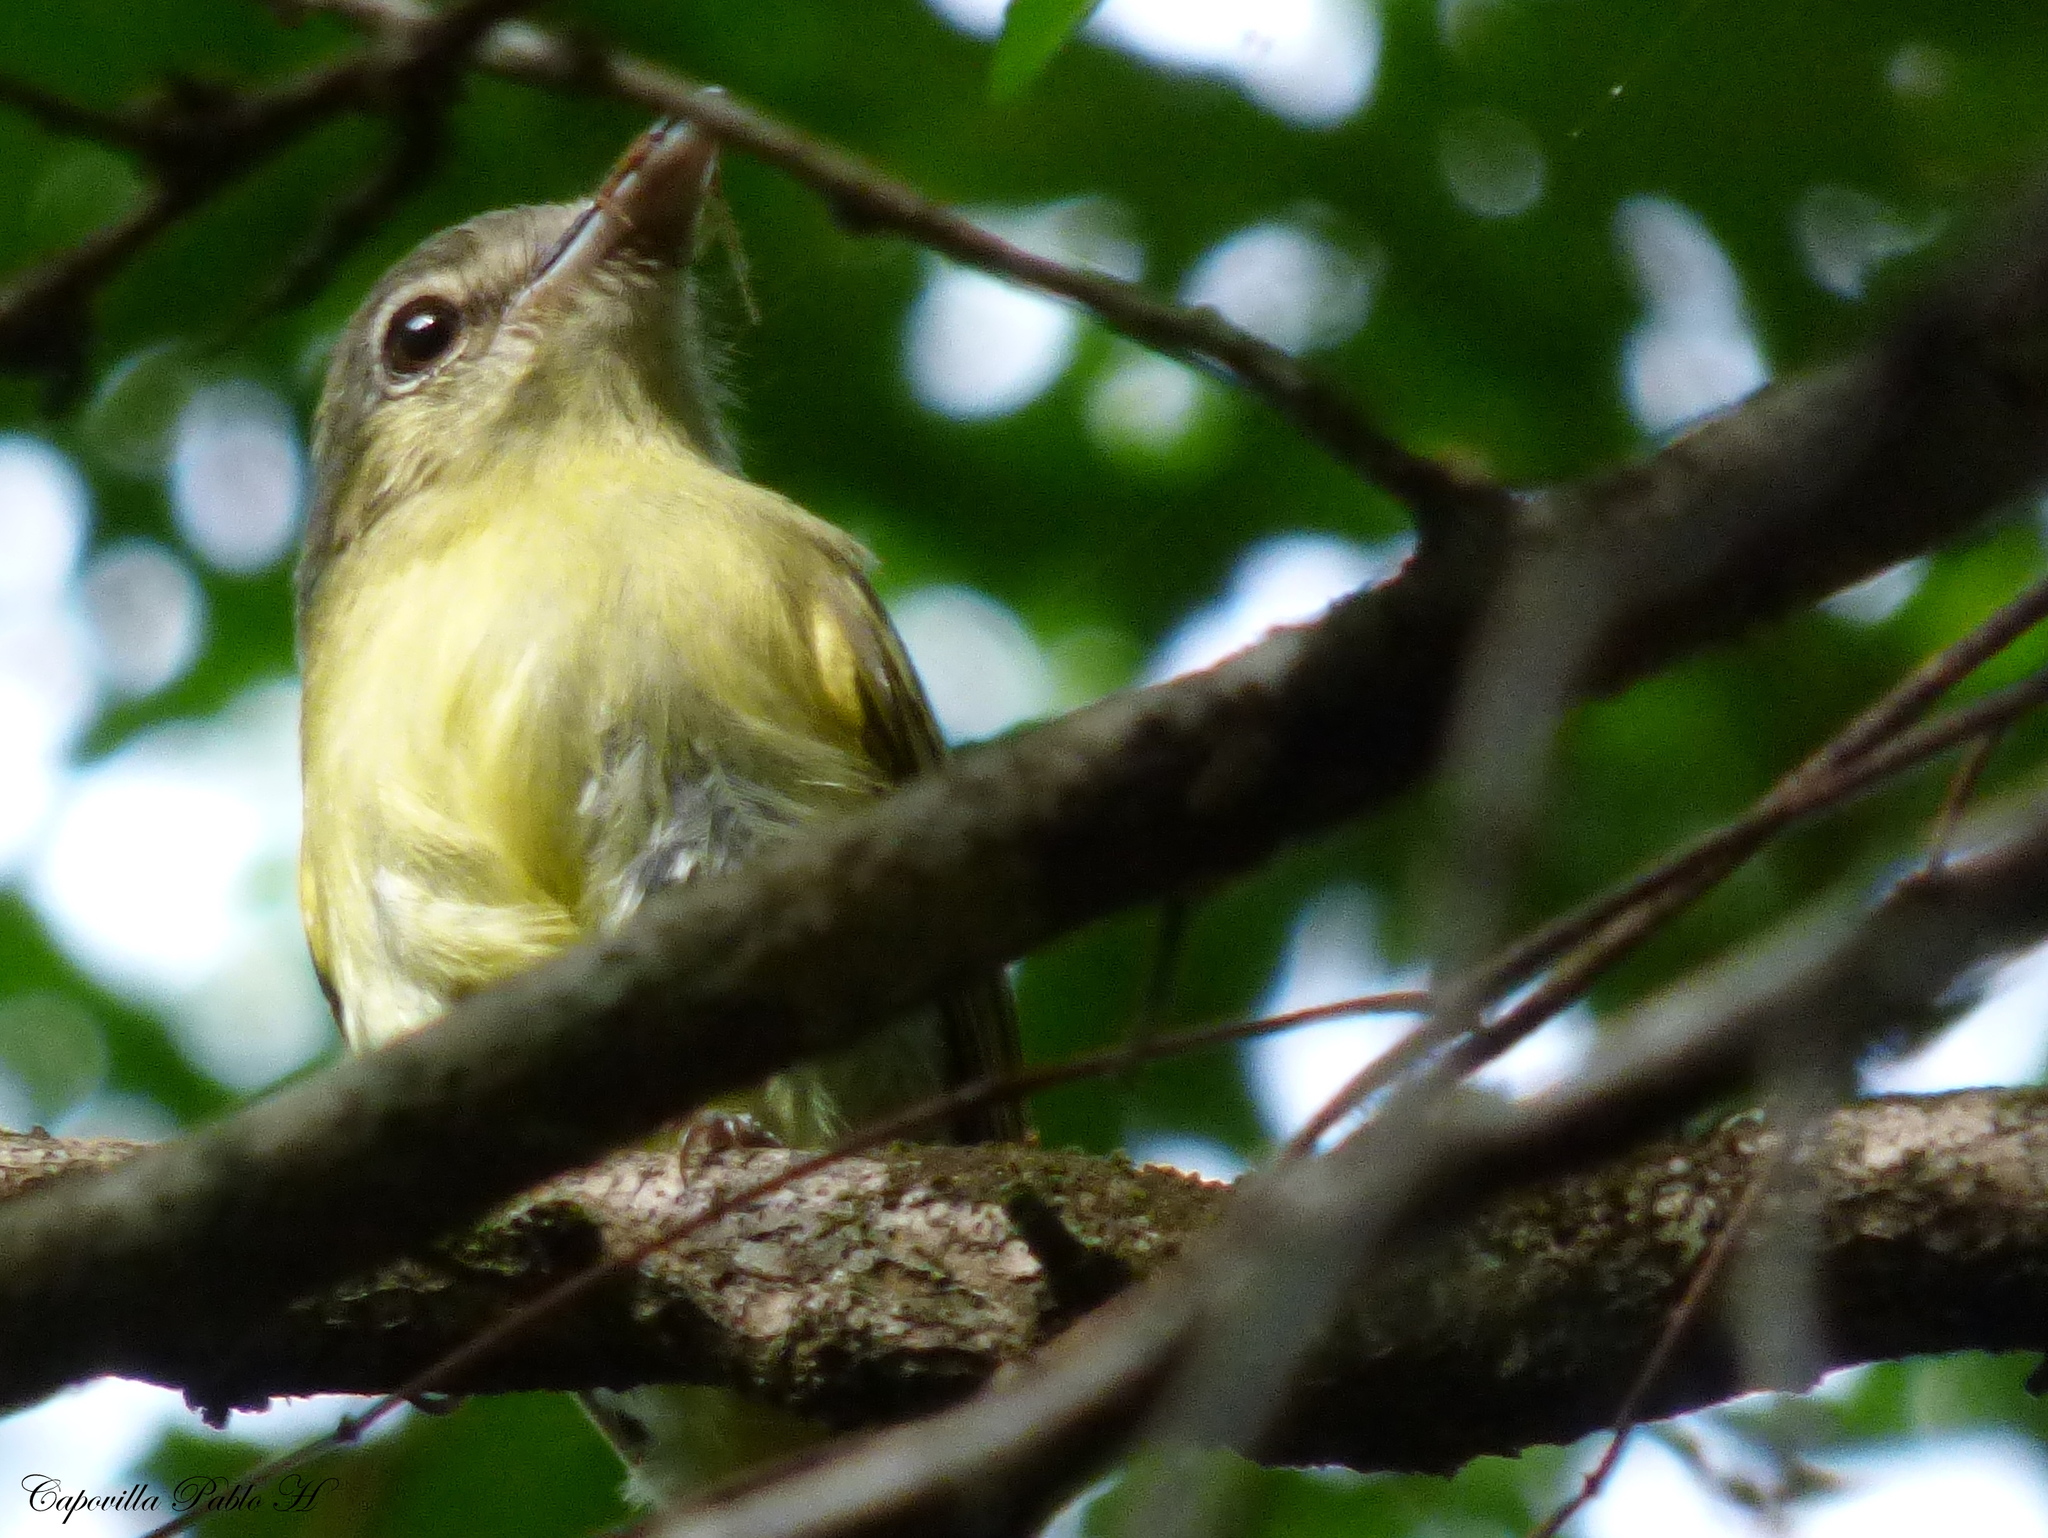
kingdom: Animalia
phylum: Chordata
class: Aves
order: Passeriformes
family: Tyrannidae
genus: Tolmomyias
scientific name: Tolmomyias sulphurescens
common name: Yellow-olive flycatcher
